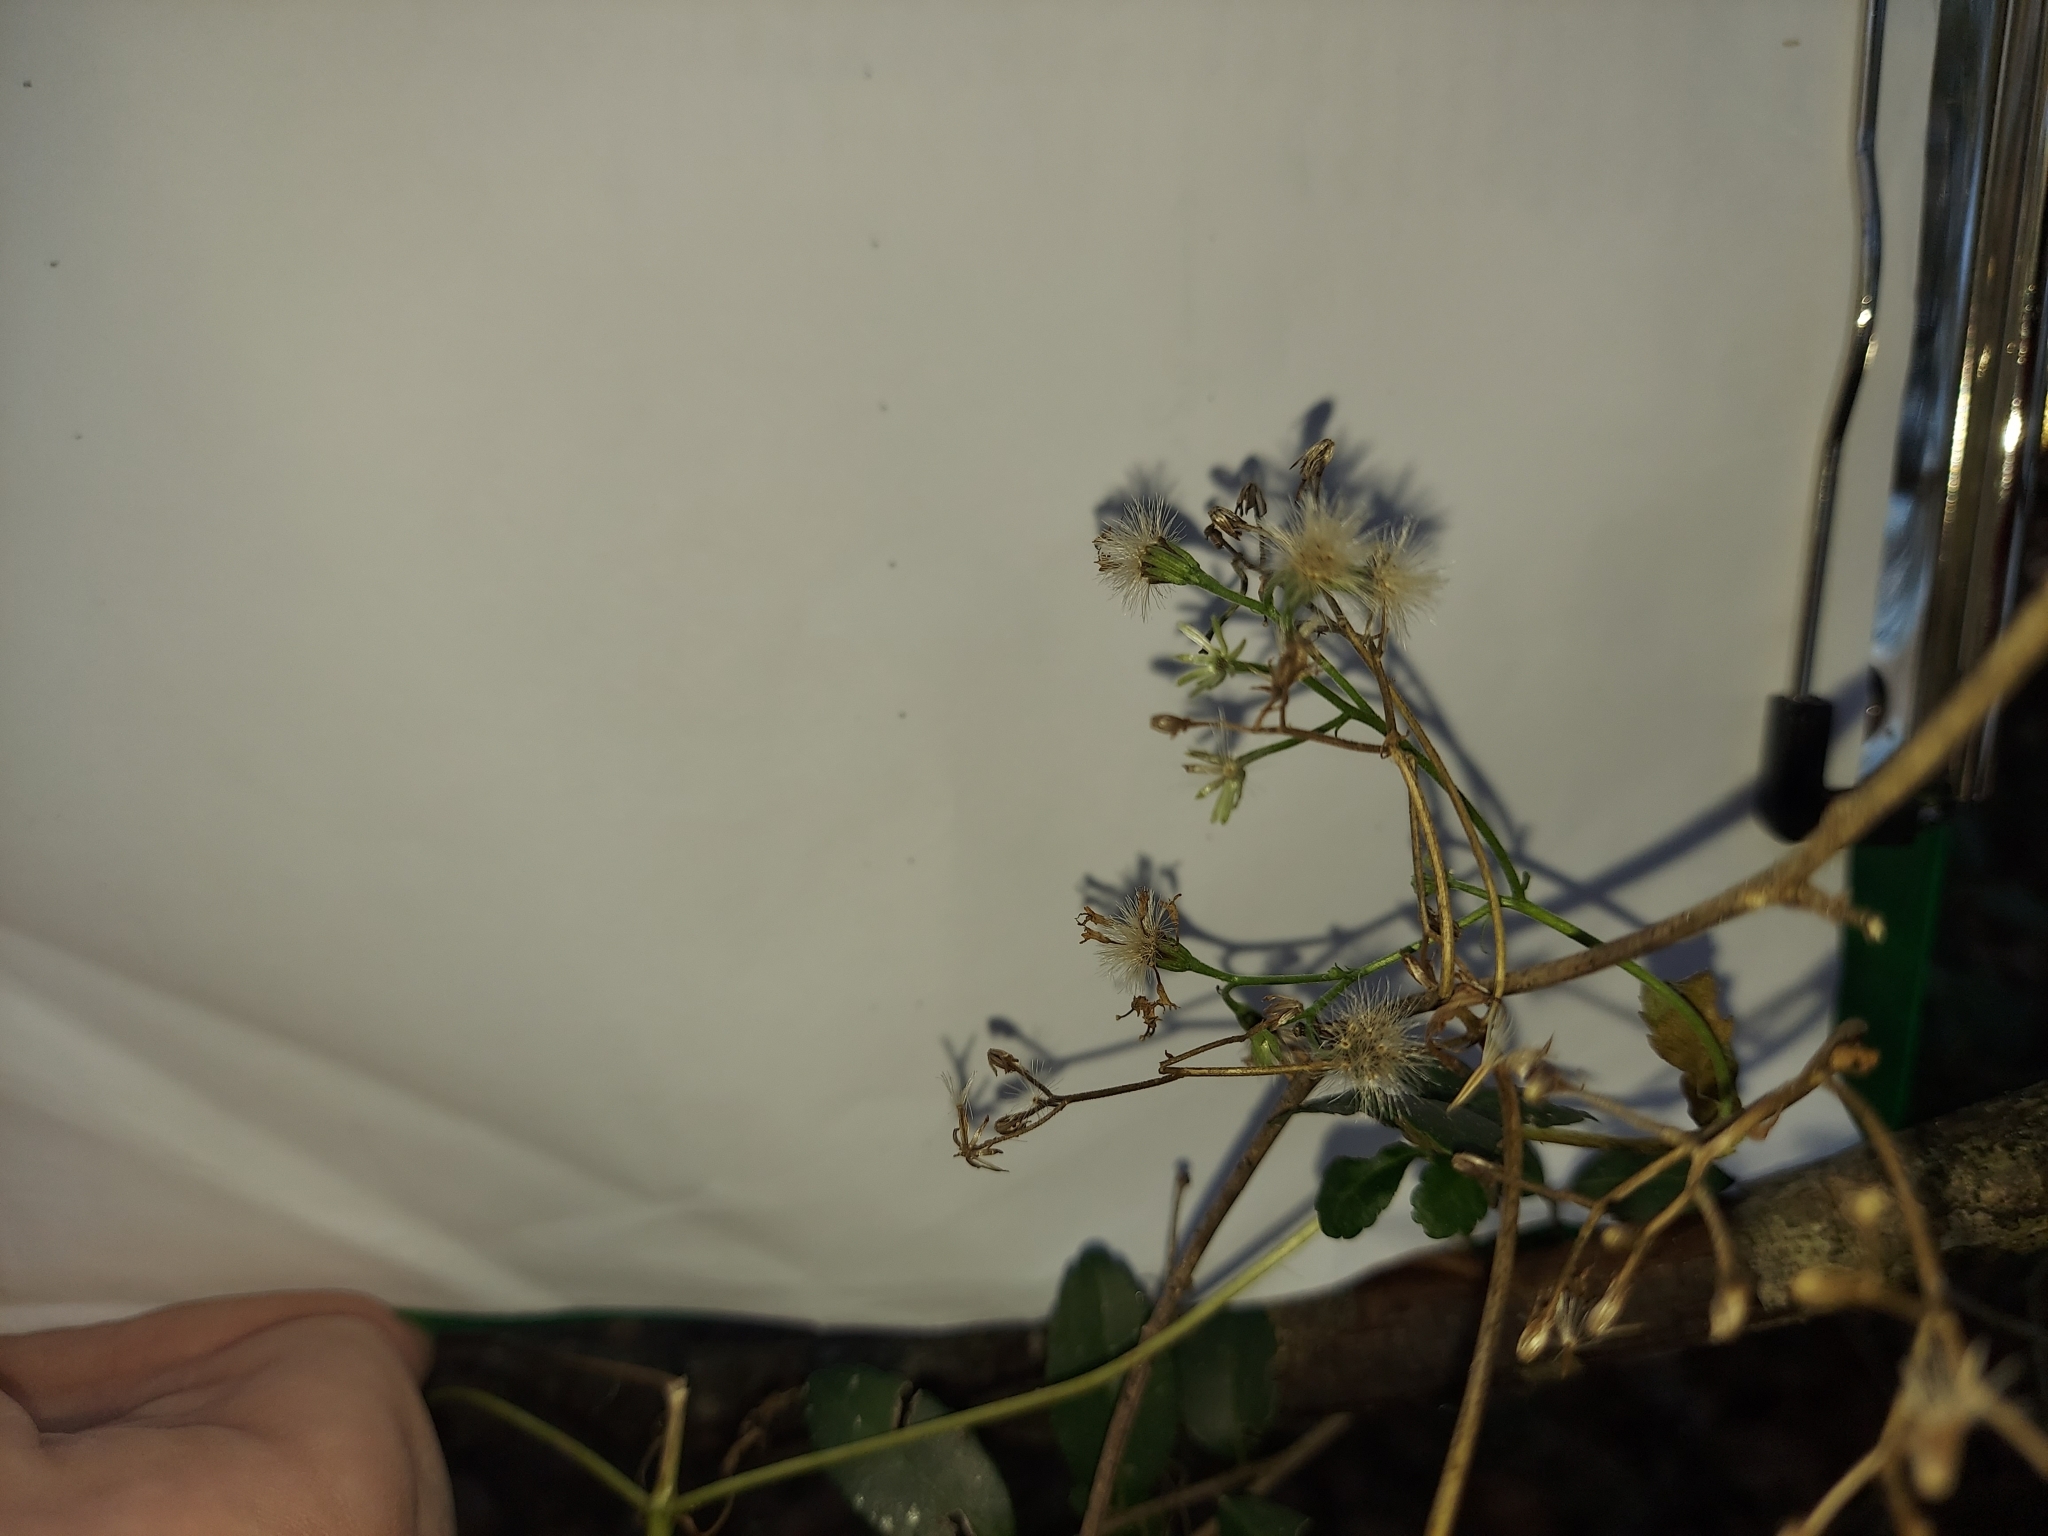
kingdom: Plantae
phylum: Tracheophyta
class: Magnoliopsida
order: Asterales
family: Asteraceae
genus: Ageratina
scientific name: Ageratina jucunda
